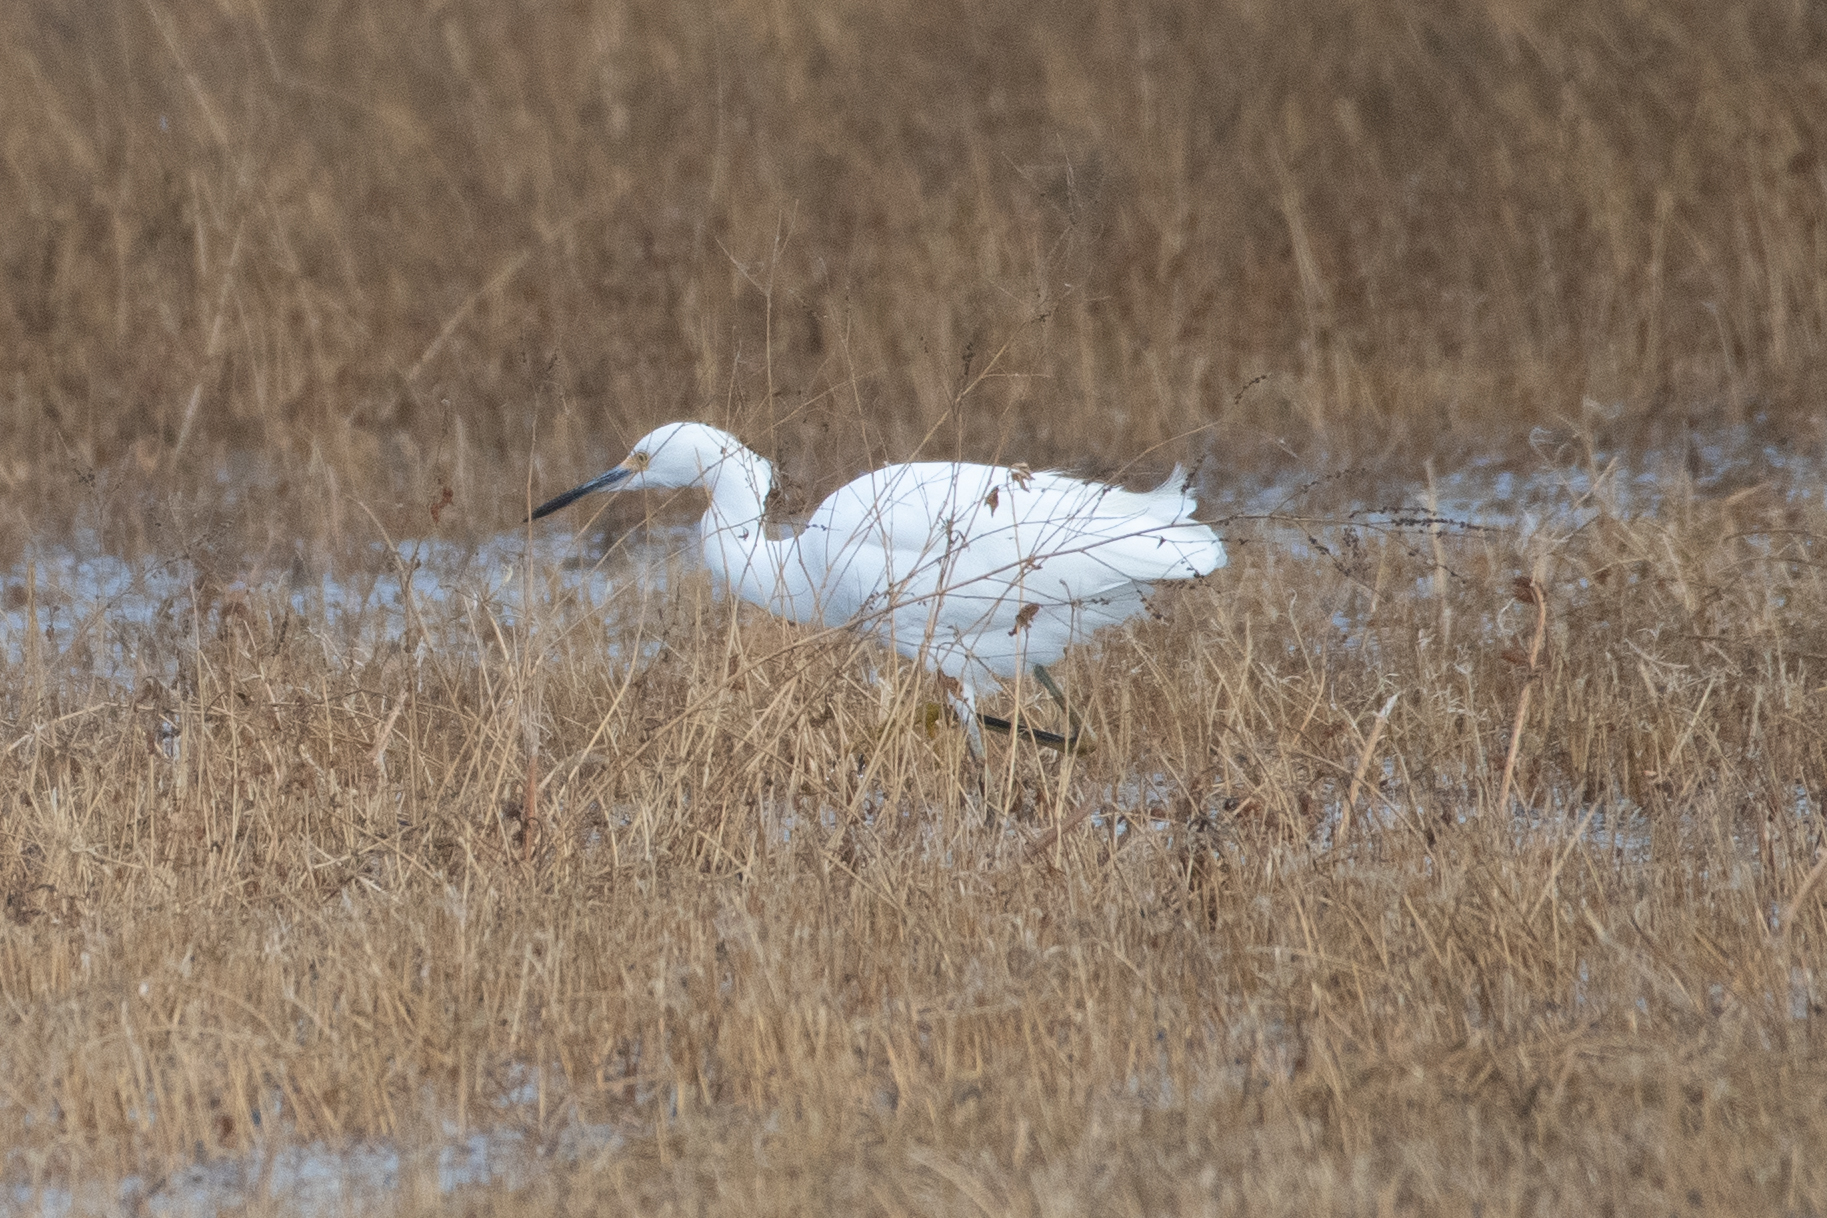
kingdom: Animalia
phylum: Chordata
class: Aves
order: Pelecaniformes
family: Ardeidae
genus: Egretta
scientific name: Egretta thula
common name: Snowy egret
